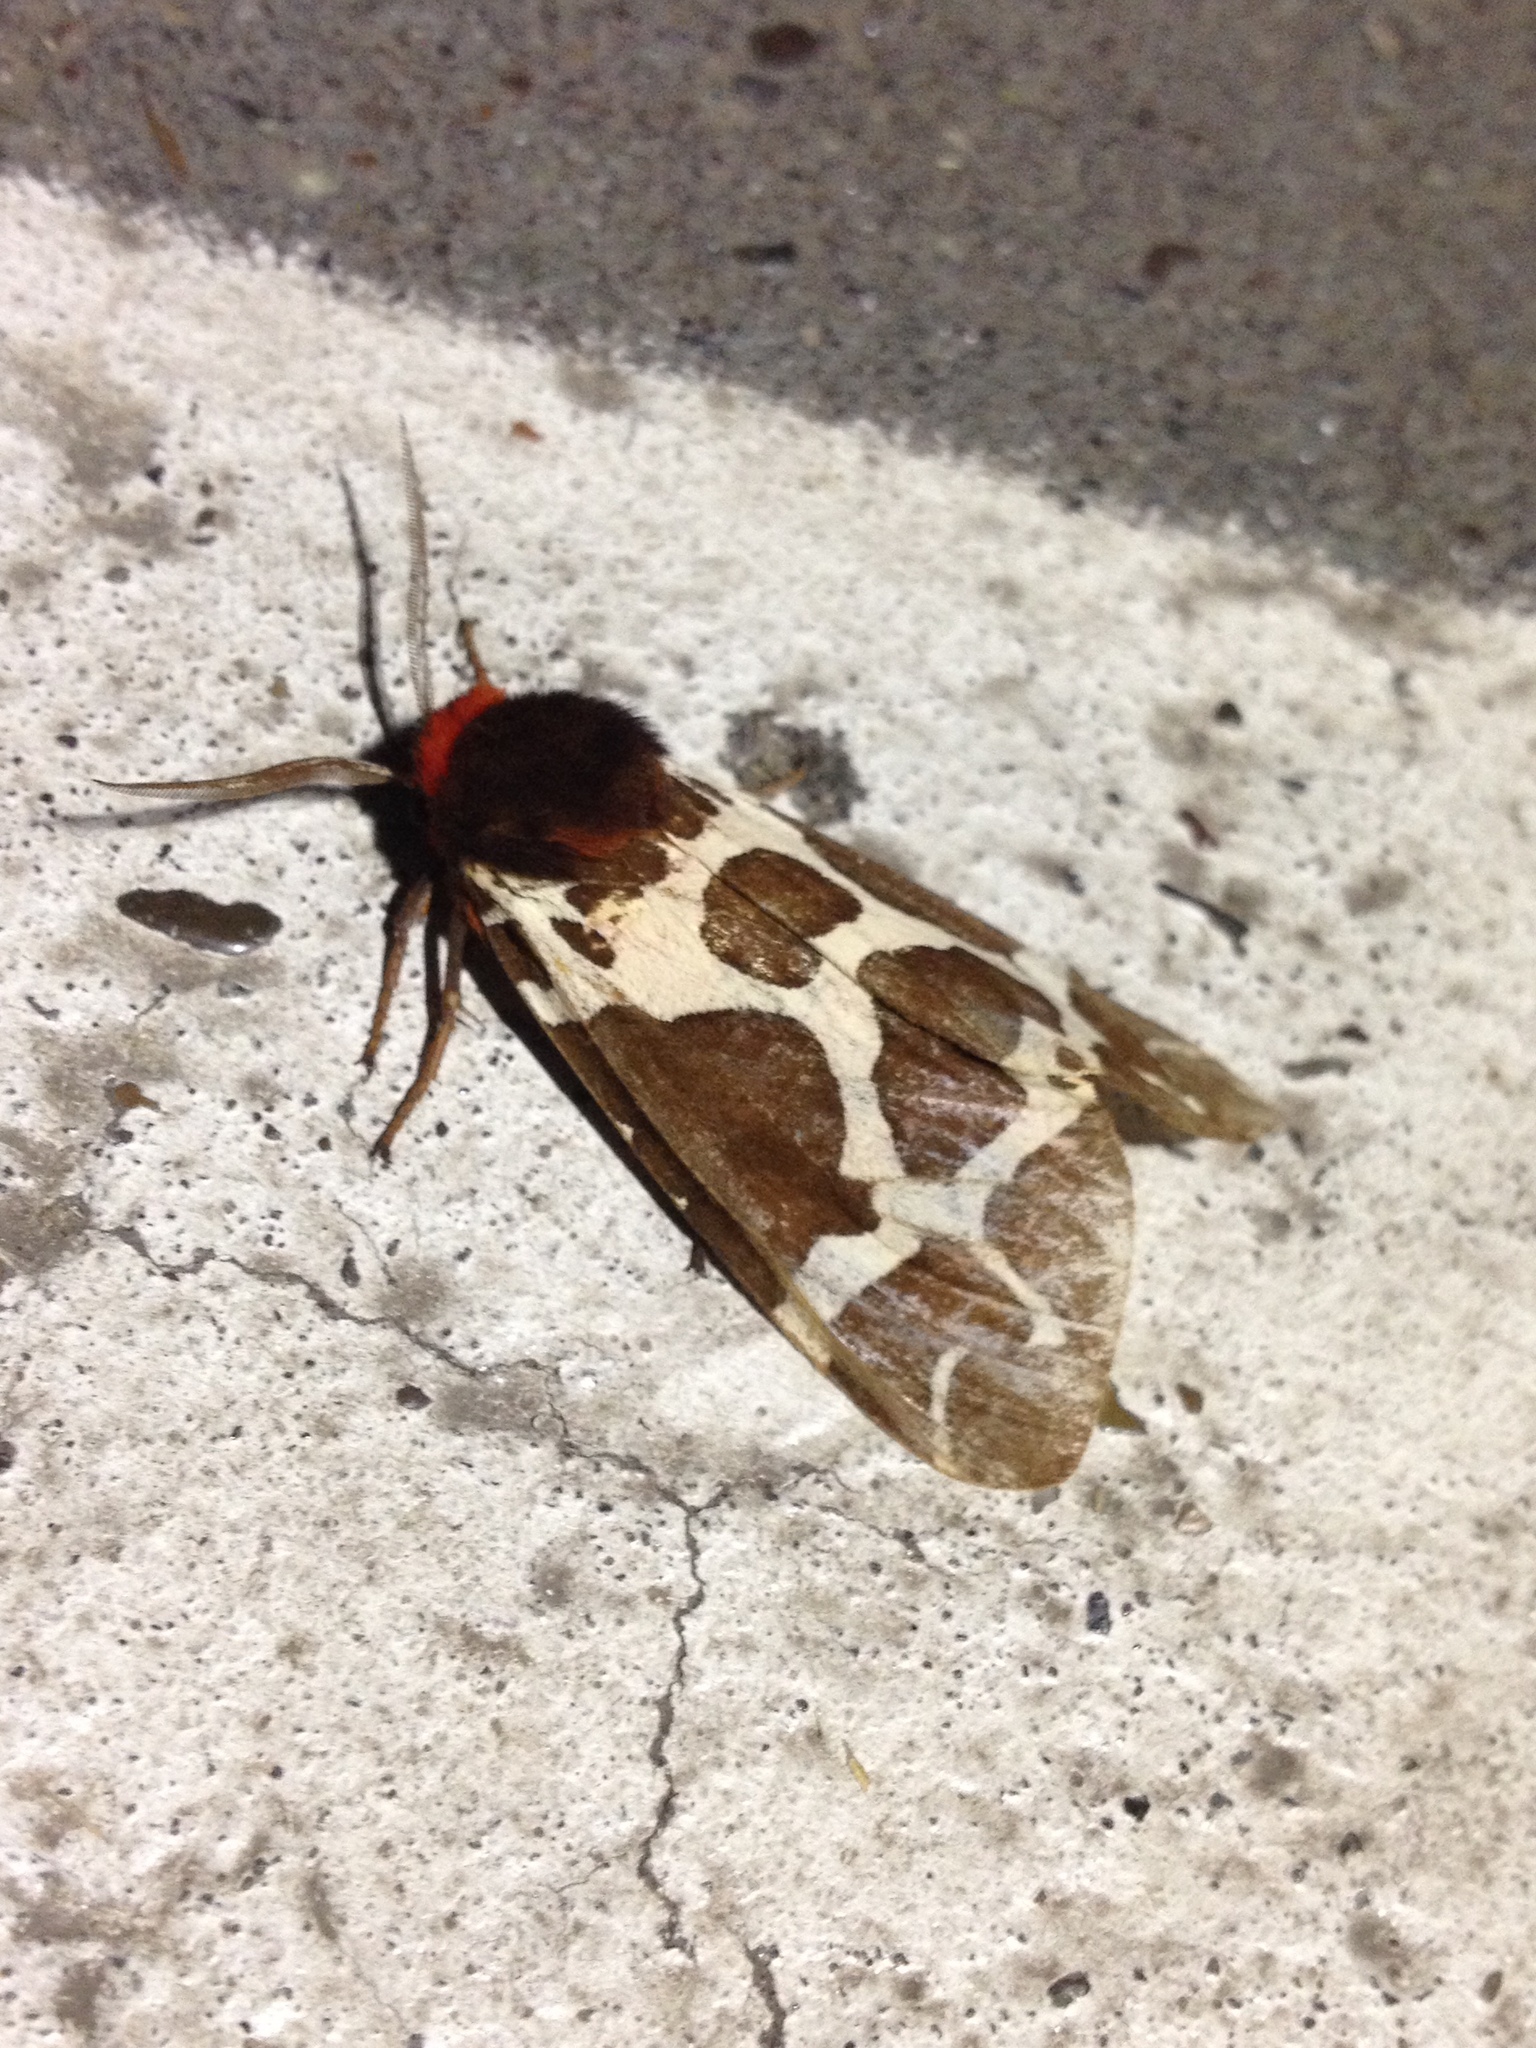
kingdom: Animalia
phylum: Arthropoda
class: Insecta
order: Lepidoptera
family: Erebidae
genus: Arctia
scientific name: Arctia caja
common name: Garden tiger
